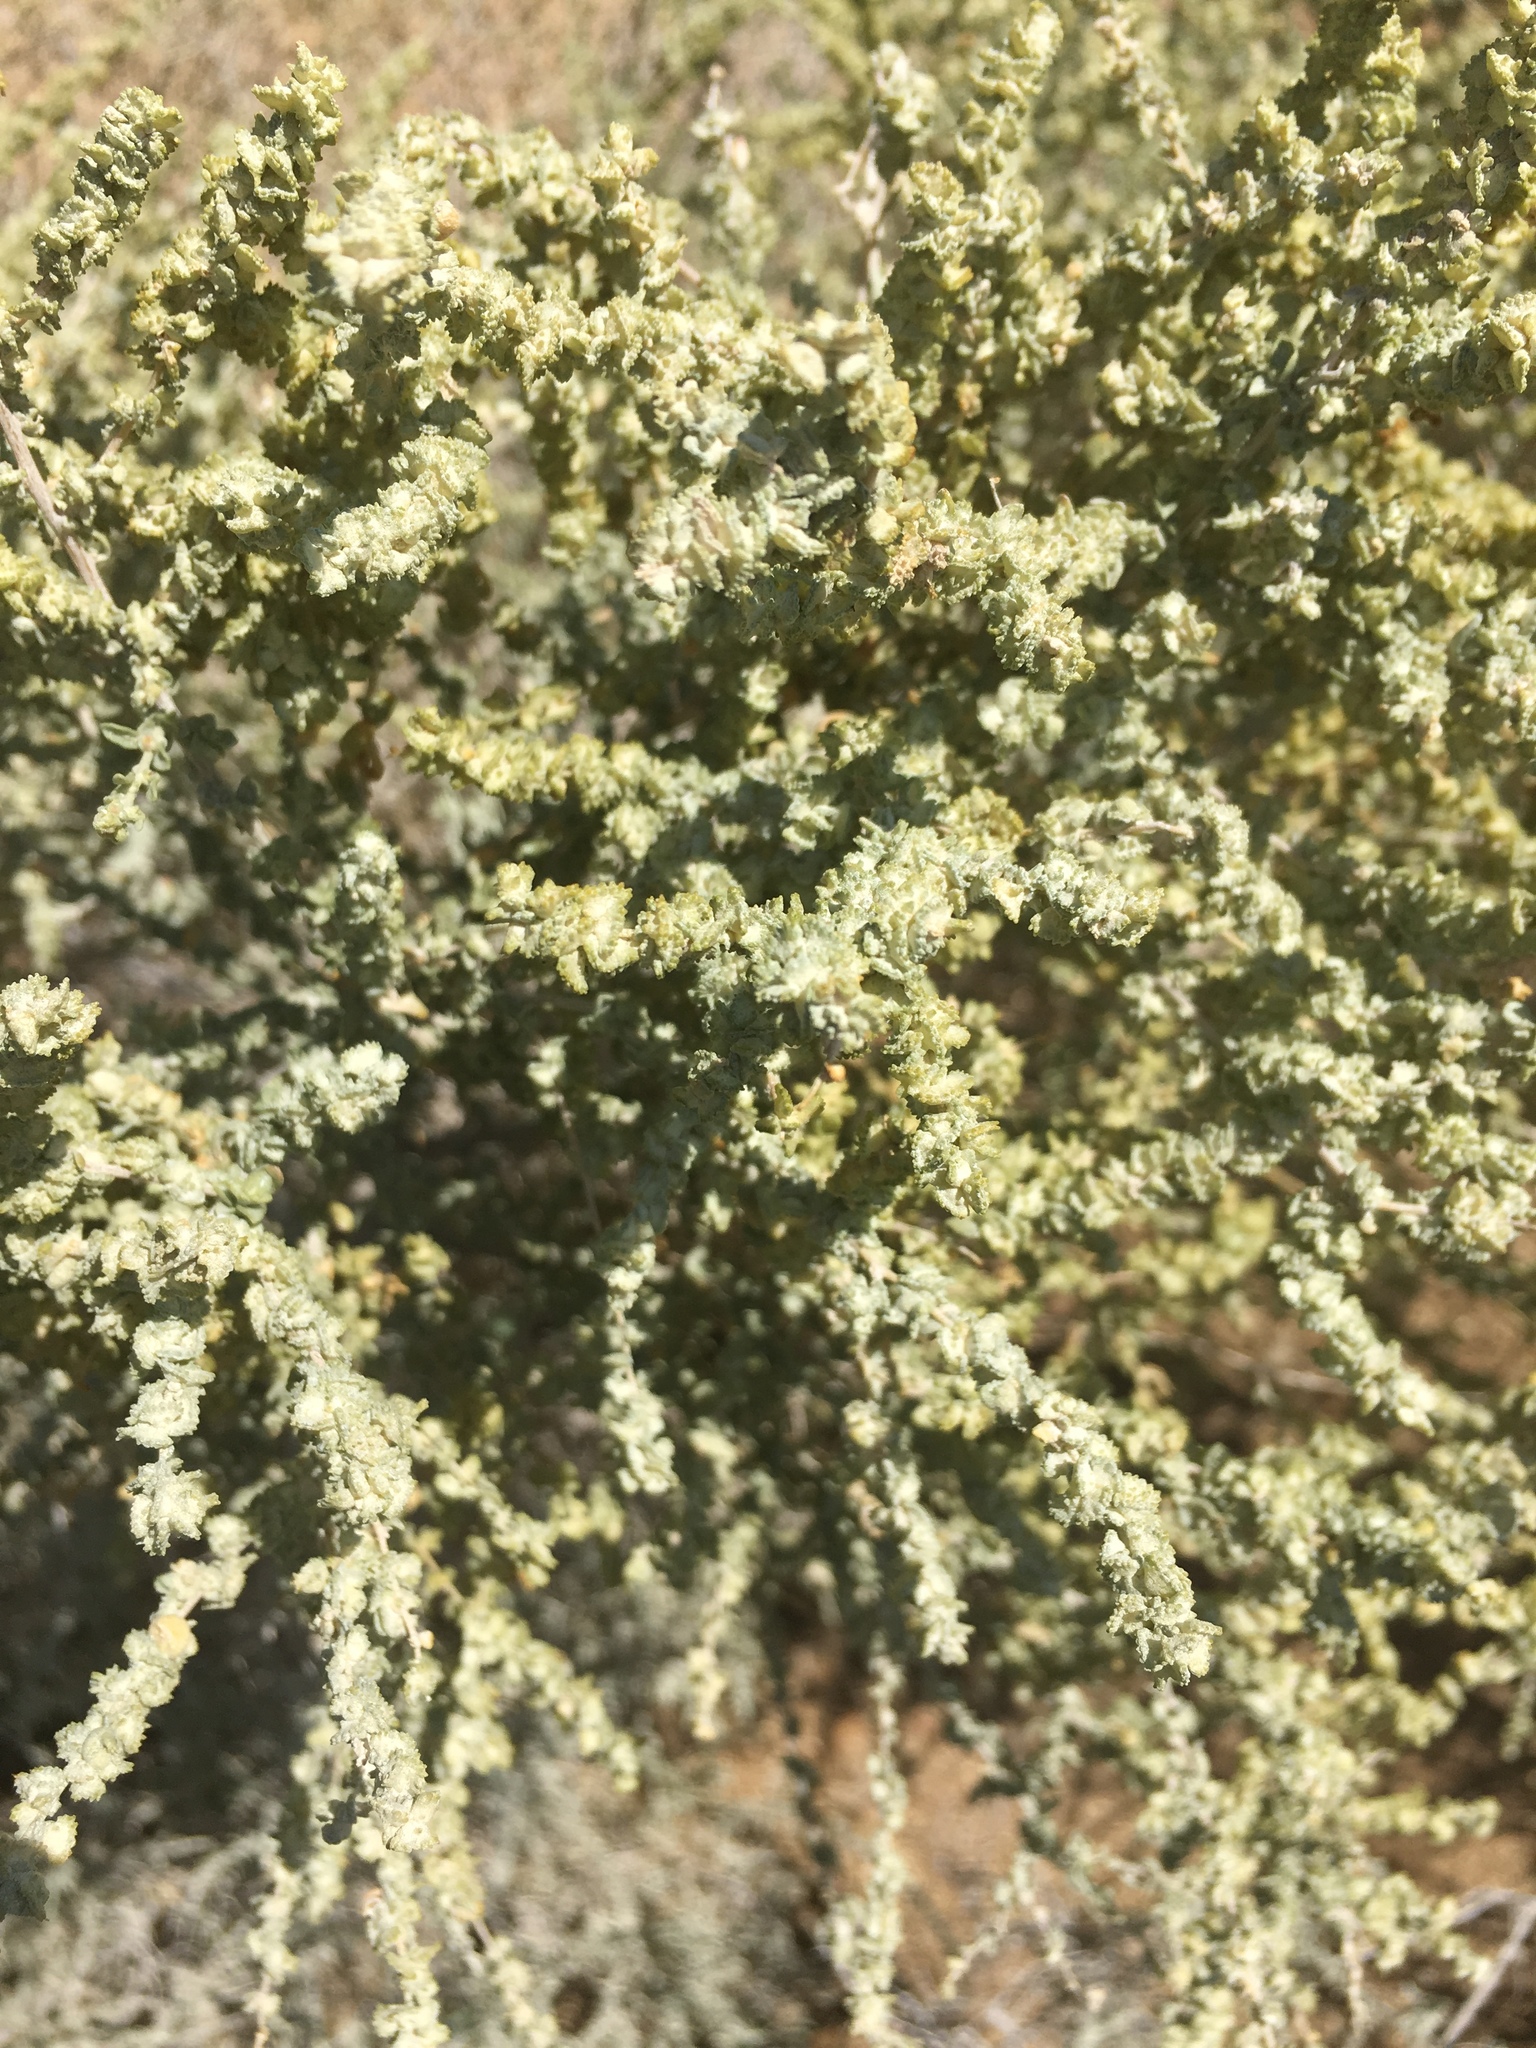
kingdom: Plantae
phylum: Tracheophyta
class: Magnoliopsida
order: Caryophyllales
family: Amaranthaceae
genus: Atriplex
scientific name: Atriplex canescens
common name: Four-wing saltbush
